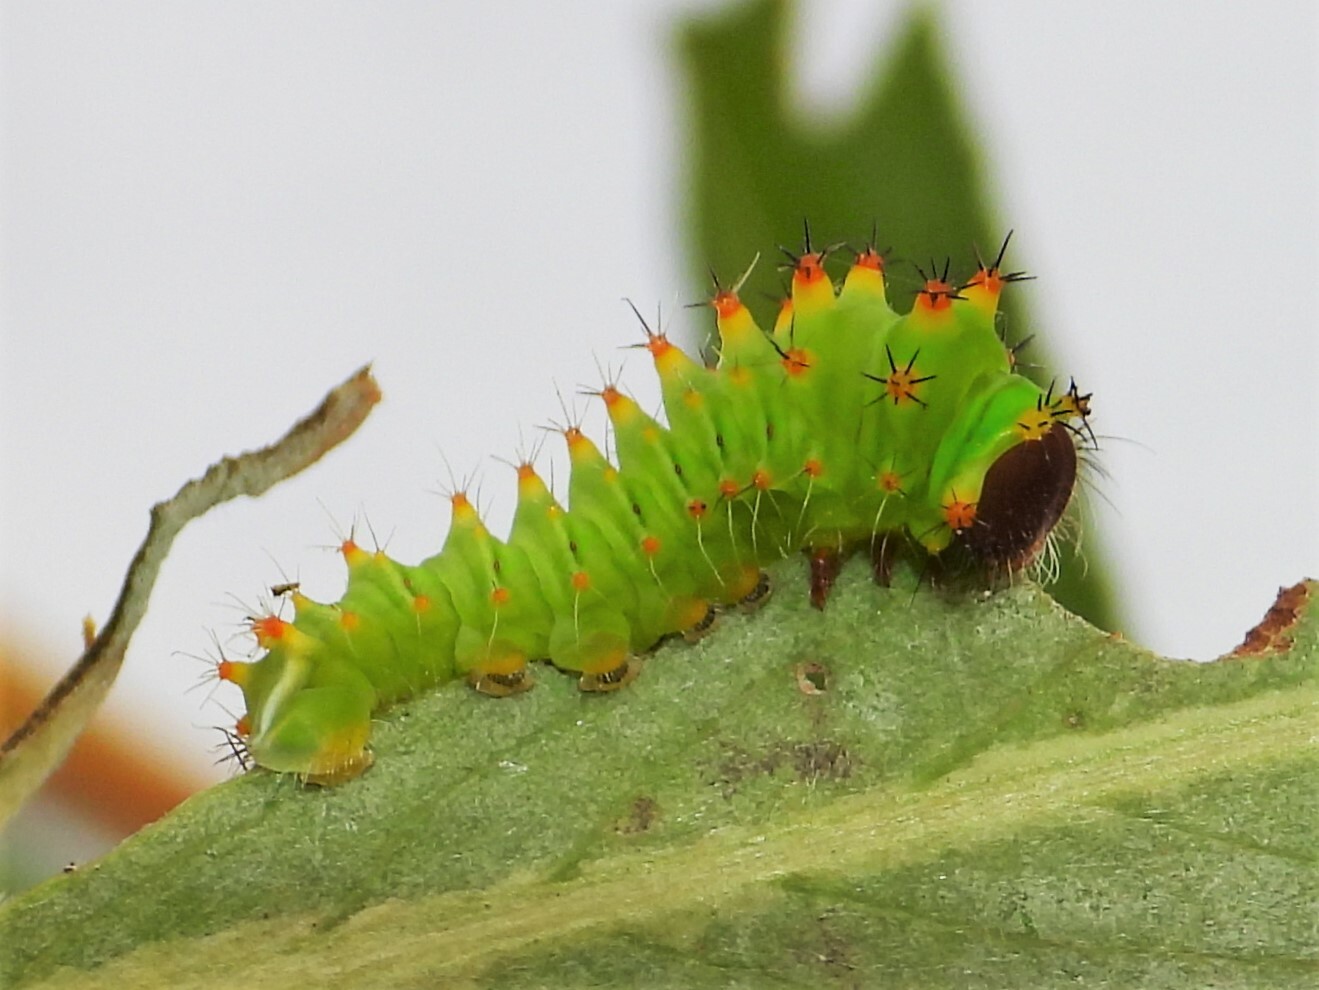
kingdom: Animalia
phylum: Arthropoda
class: Insecta
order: Lepidoptera
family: Saturniidae
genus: Antheraea
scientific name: Antheraea polyphemus
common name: Polyphemus moth
